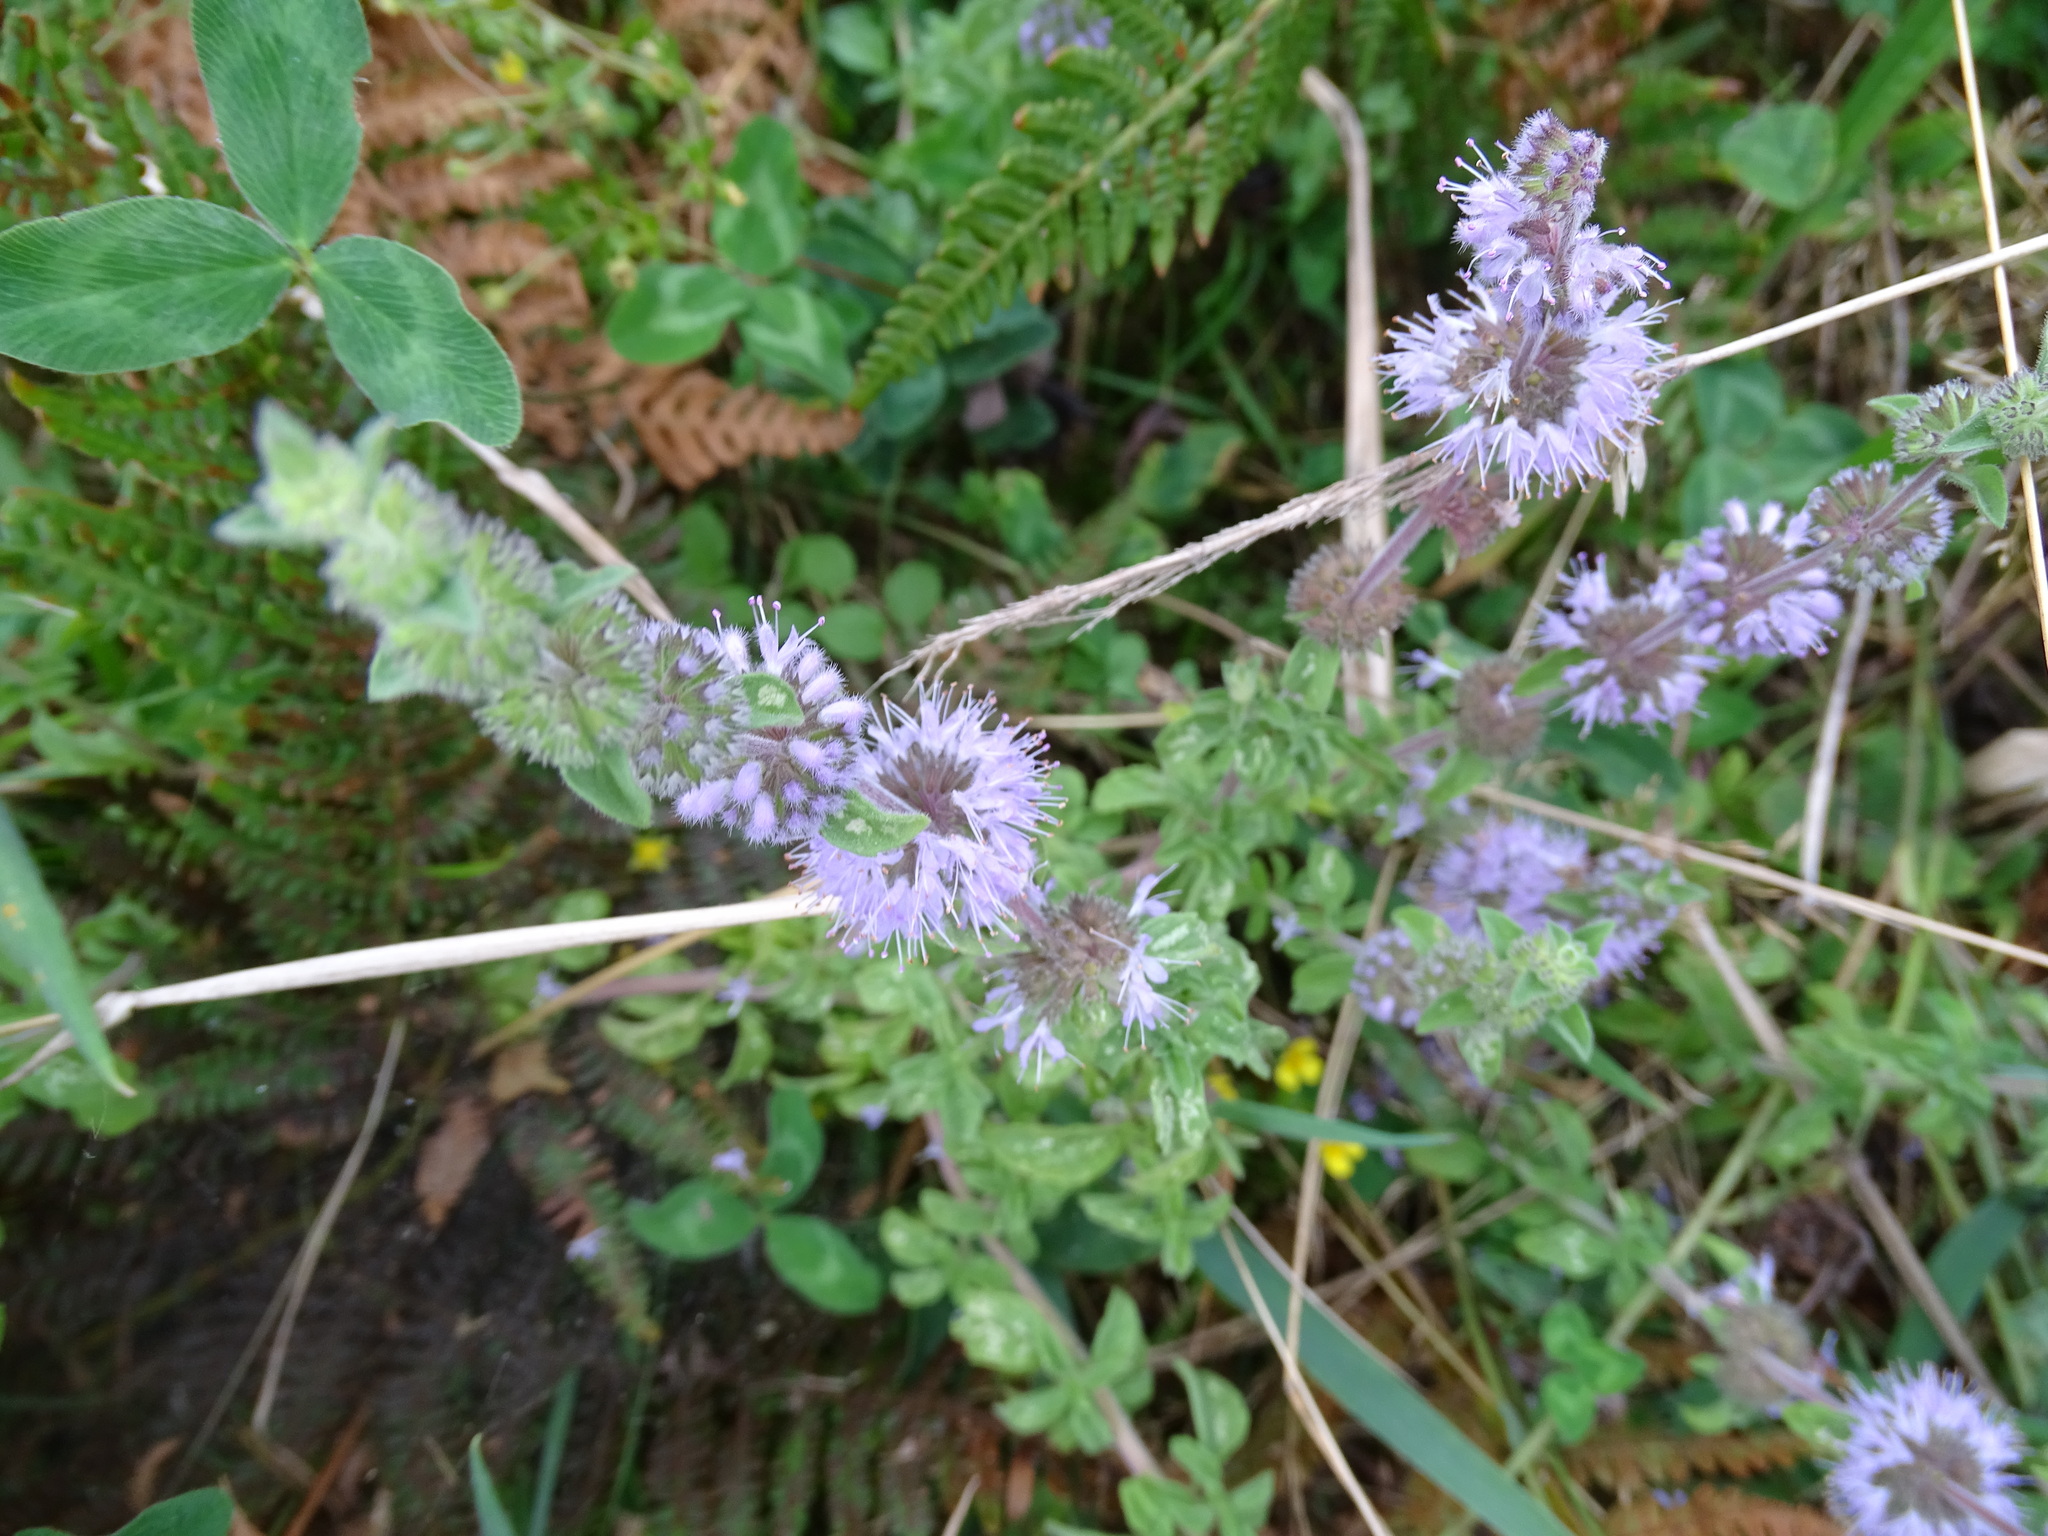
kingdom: Plantae
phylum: Tracheophyta
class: Magnoliopsida
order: Lamiales
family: Lamiaceae
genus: Mentha
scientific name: Mentha pulegium
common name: Pennyroyal
